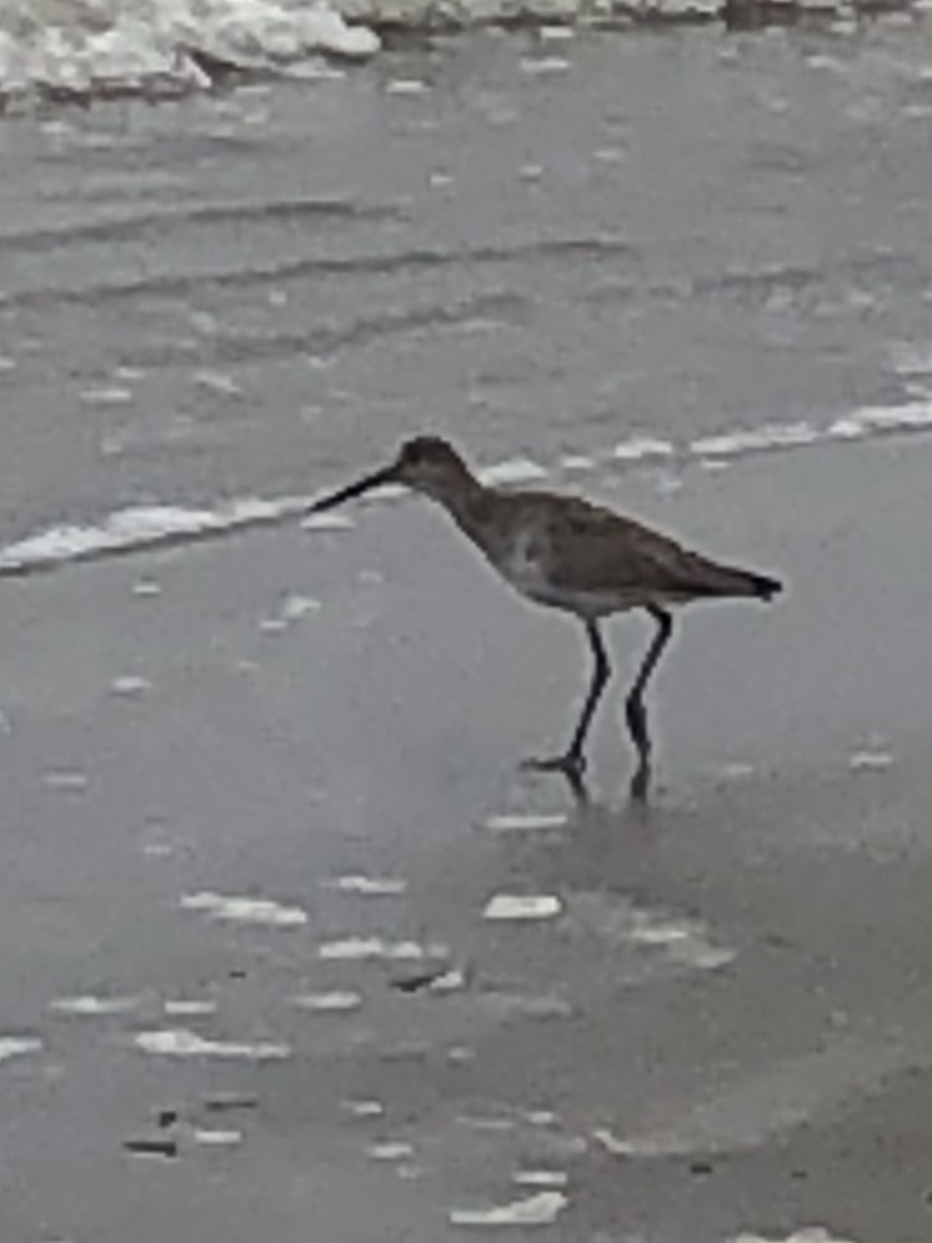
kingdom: Animalia
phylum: Chordata
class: Aves
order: Charadriiformes
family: Scolopacidae
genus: Tringa
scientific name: Tringa semipalmata
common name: Willet
